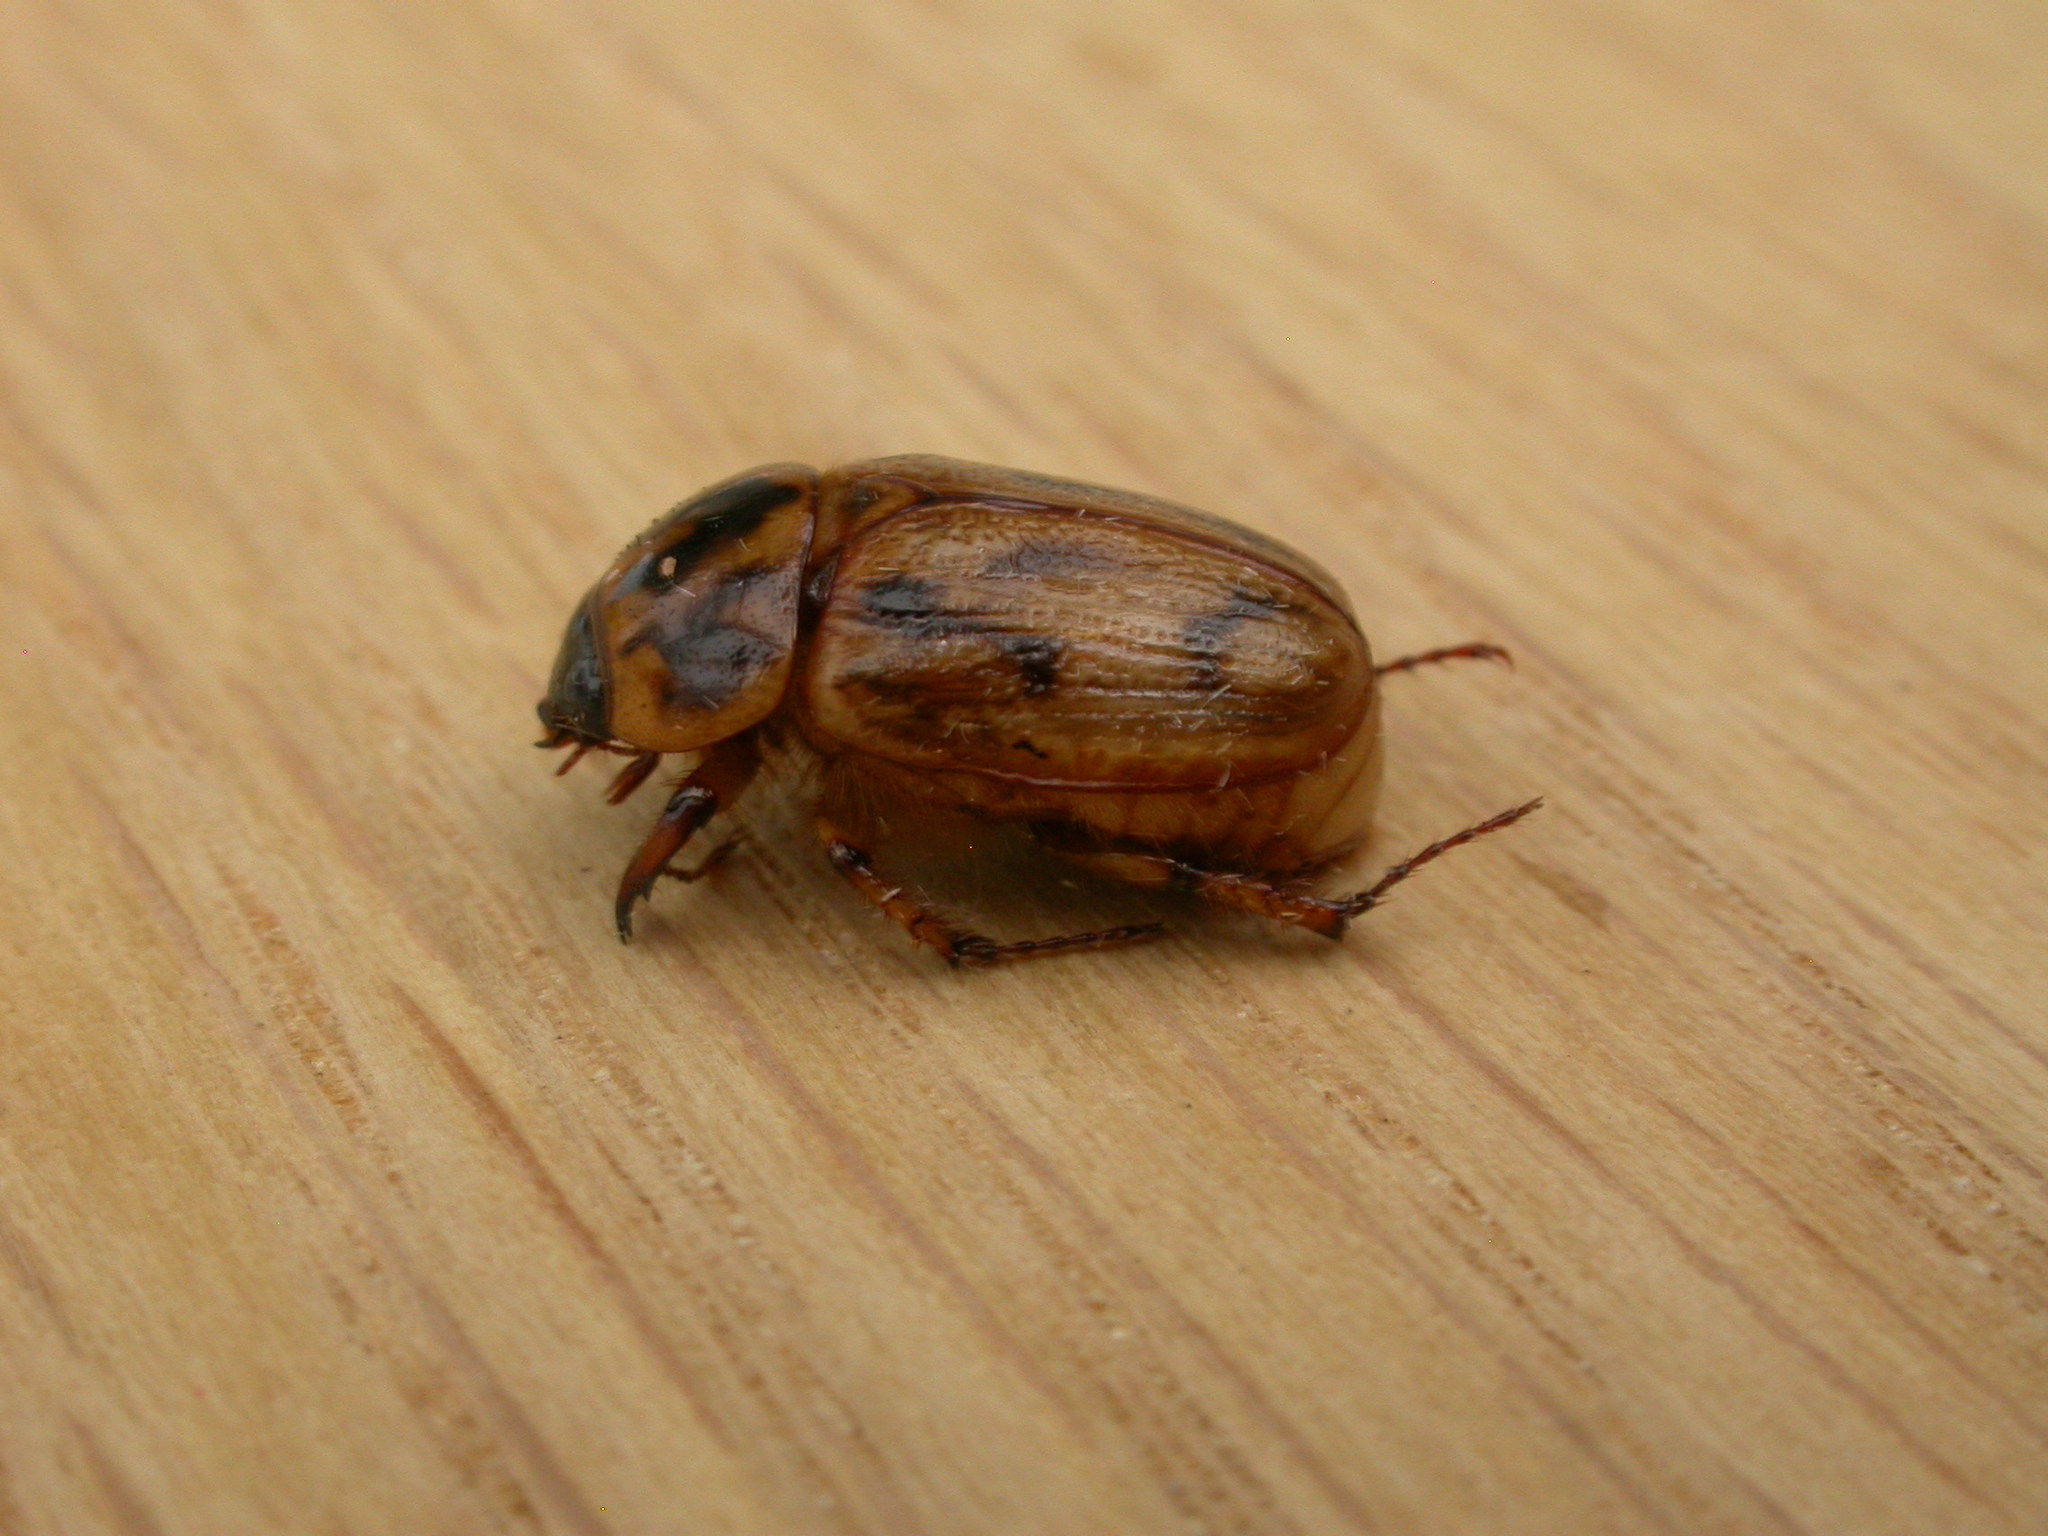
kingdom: Animalia
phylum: Arthropoda
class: Insecta
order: Coleoptera
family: Scarabaeidae
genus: Cyclocephala
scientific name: Cyclocephala signaticollis
